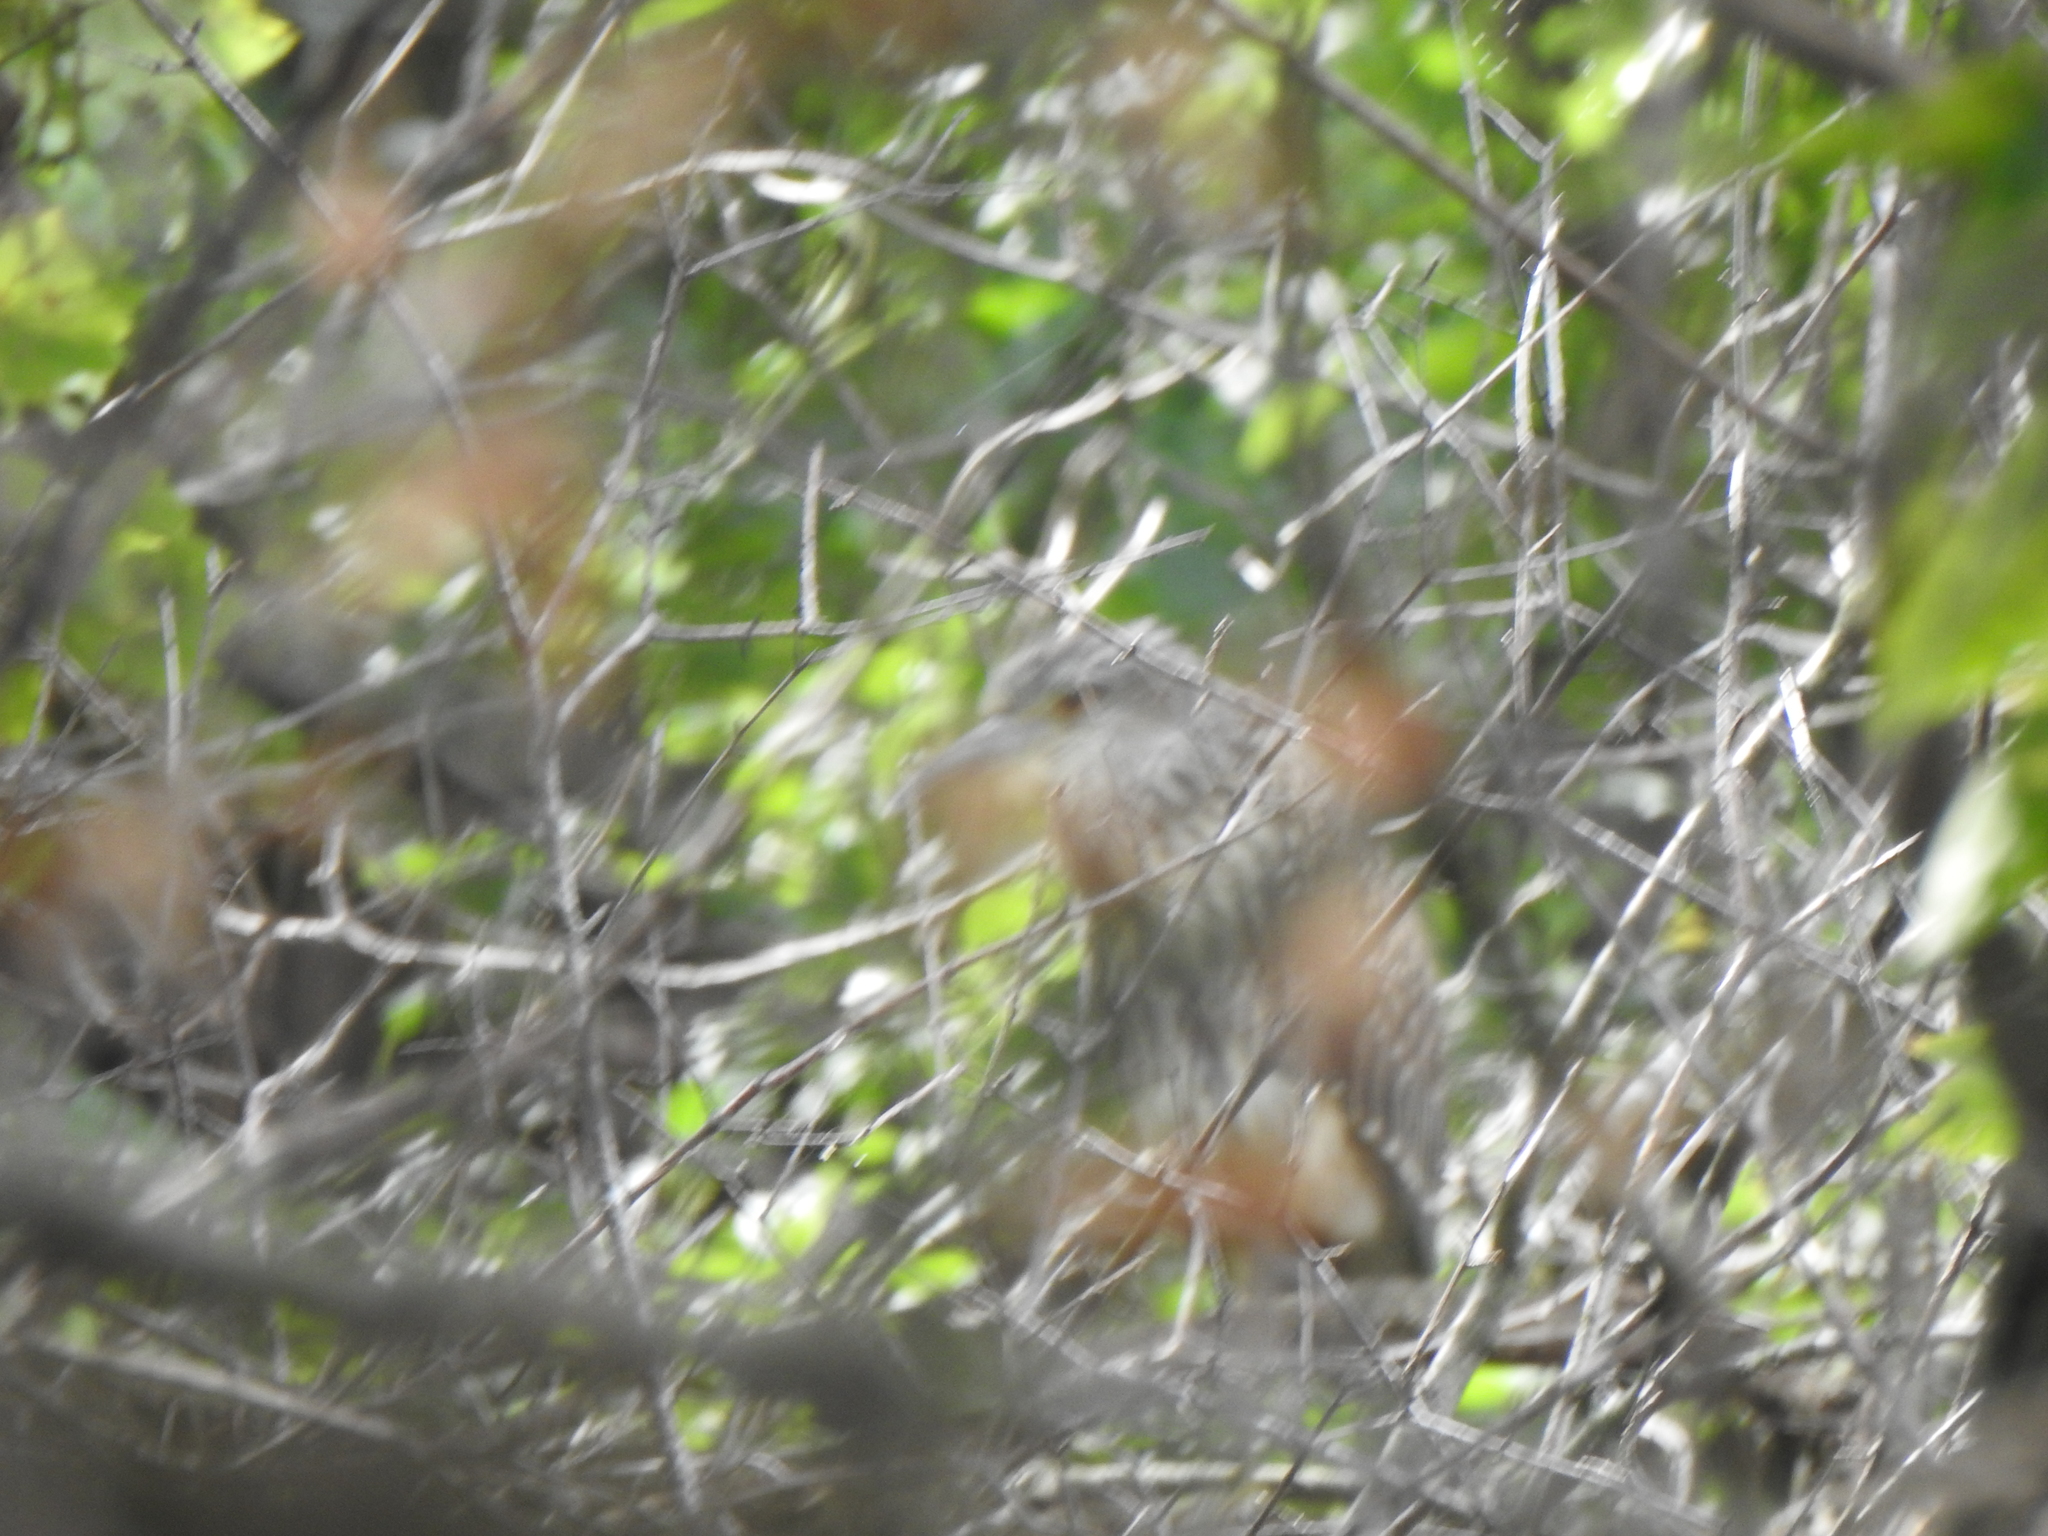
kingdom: Animalia
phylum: Chordata
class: Aves
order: Pelecaniformes
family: Ardeidae
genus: Nyctanassa
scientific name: Nyctanassa violacea
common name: Yellow-crowned night heron
